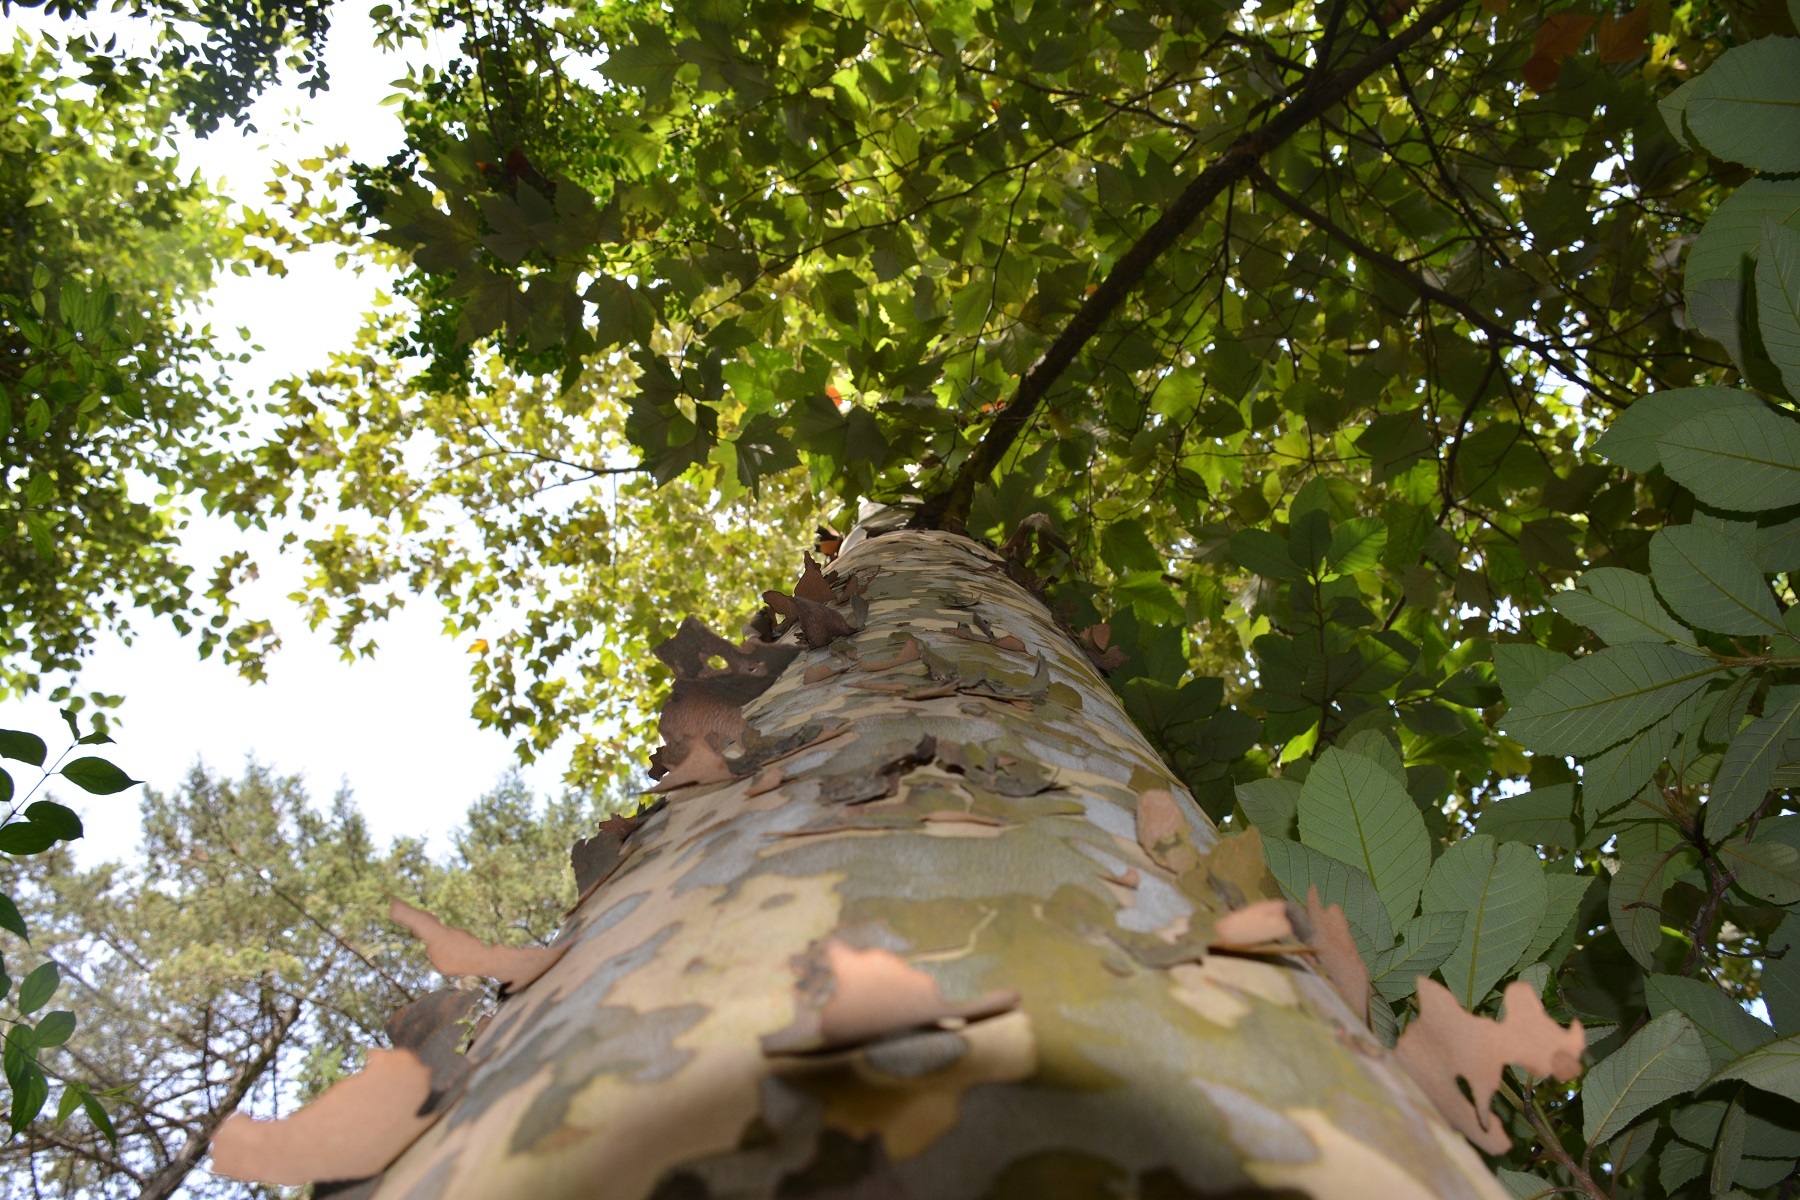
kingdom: Plantae
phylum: Tracheophyta
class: Magnoliopsida
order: Proteales
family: Platanaceae
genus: Platanus
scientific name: Platanus mexicana
